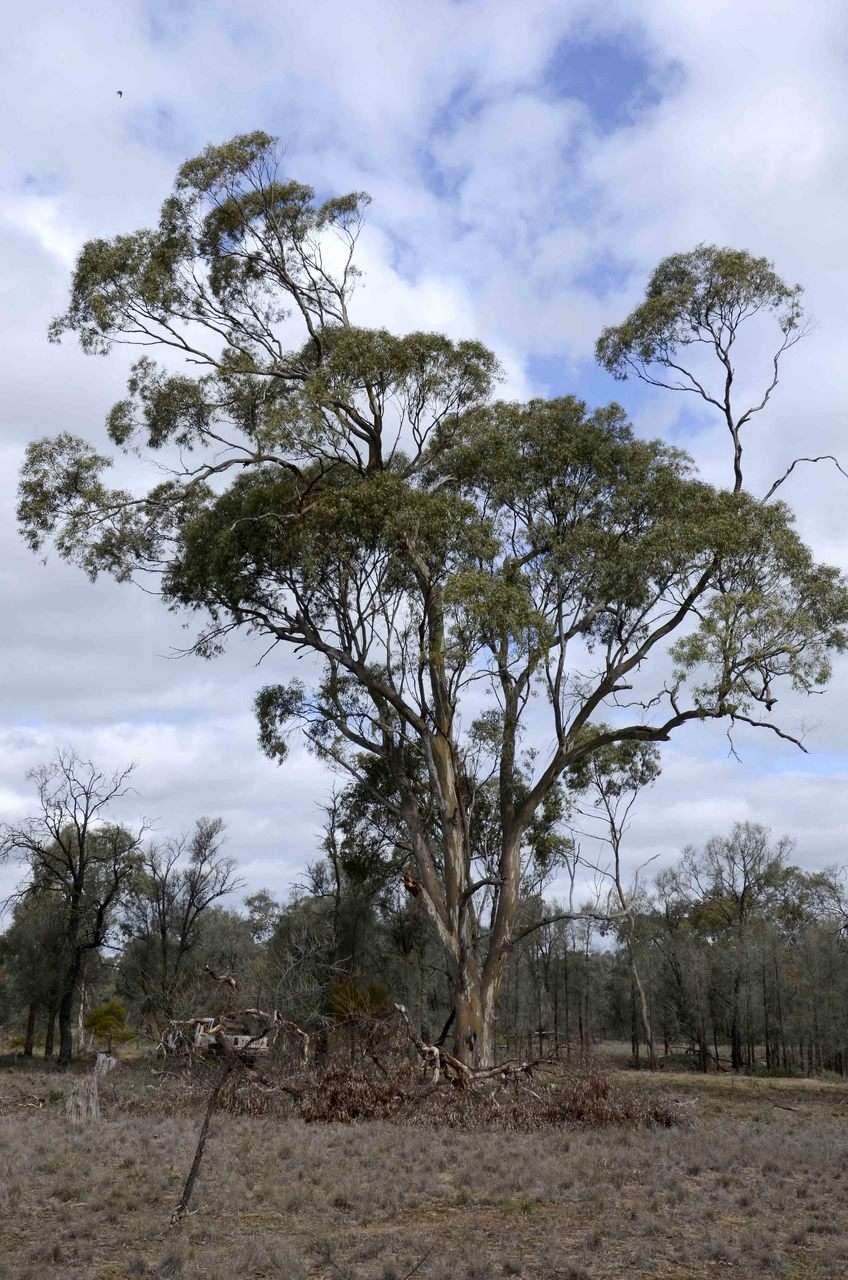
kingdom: Plantae
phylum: Tracheophyta
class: Magnoliopsida
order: Myrtales
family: Myrtaceae
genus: Eucalyptus
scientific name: Eucalyptus leucoxylon
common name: Blue gum
